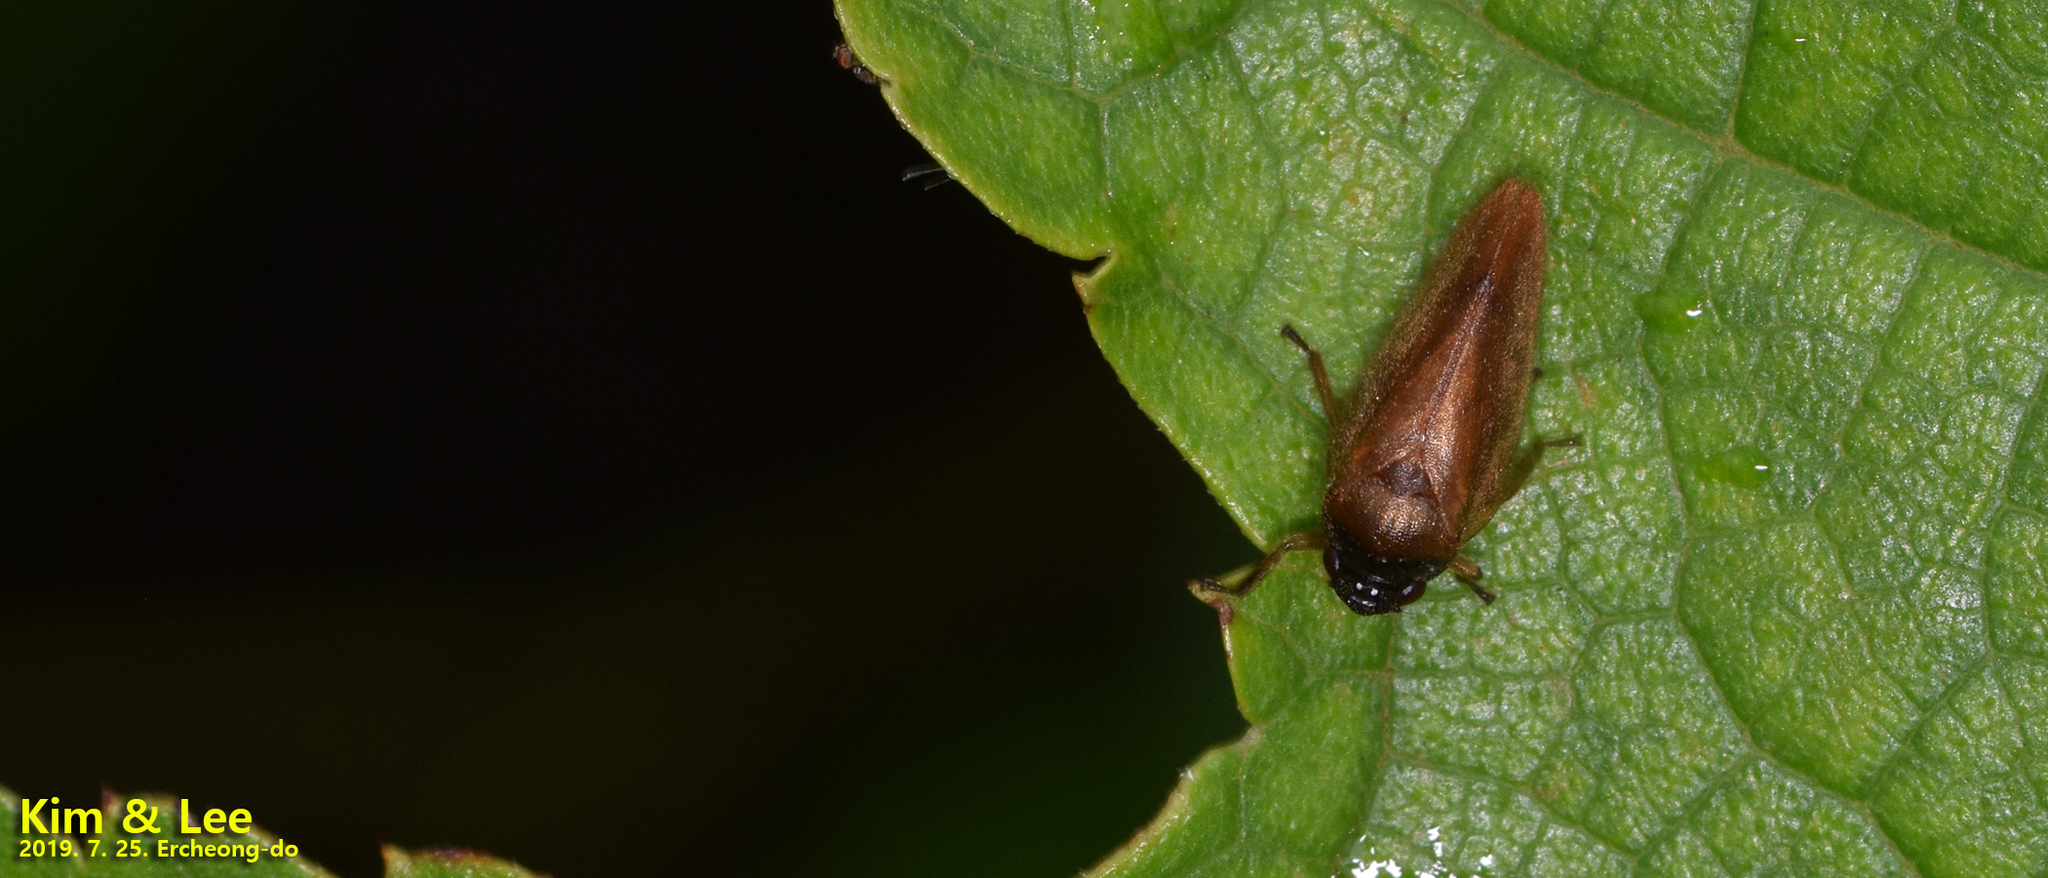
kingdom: Animalia
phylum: Arthropoda
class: Insecta
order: Hemiptera
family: Cercopidae
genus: Eoscarta
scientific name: Eoscarta assimilis
